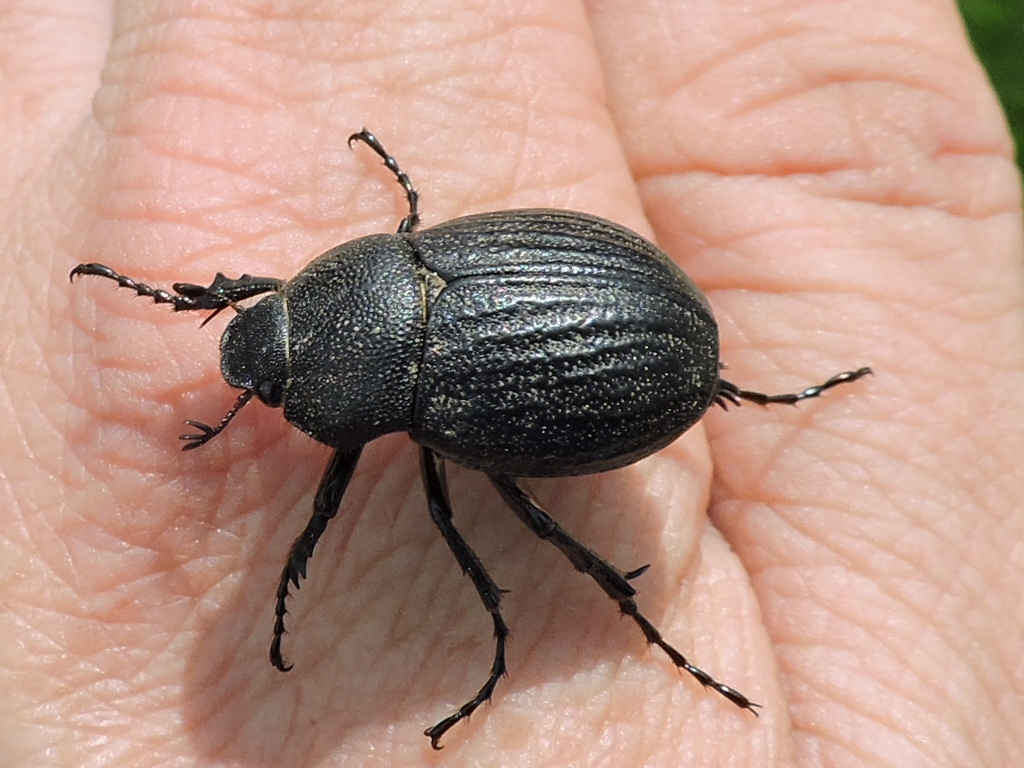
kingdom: Animalia
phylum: Arthropoda
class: Insecta
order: Coleoptera
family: Scarabaeidae
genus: Phyllophaga
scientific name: Phyllophaga cribrosa
